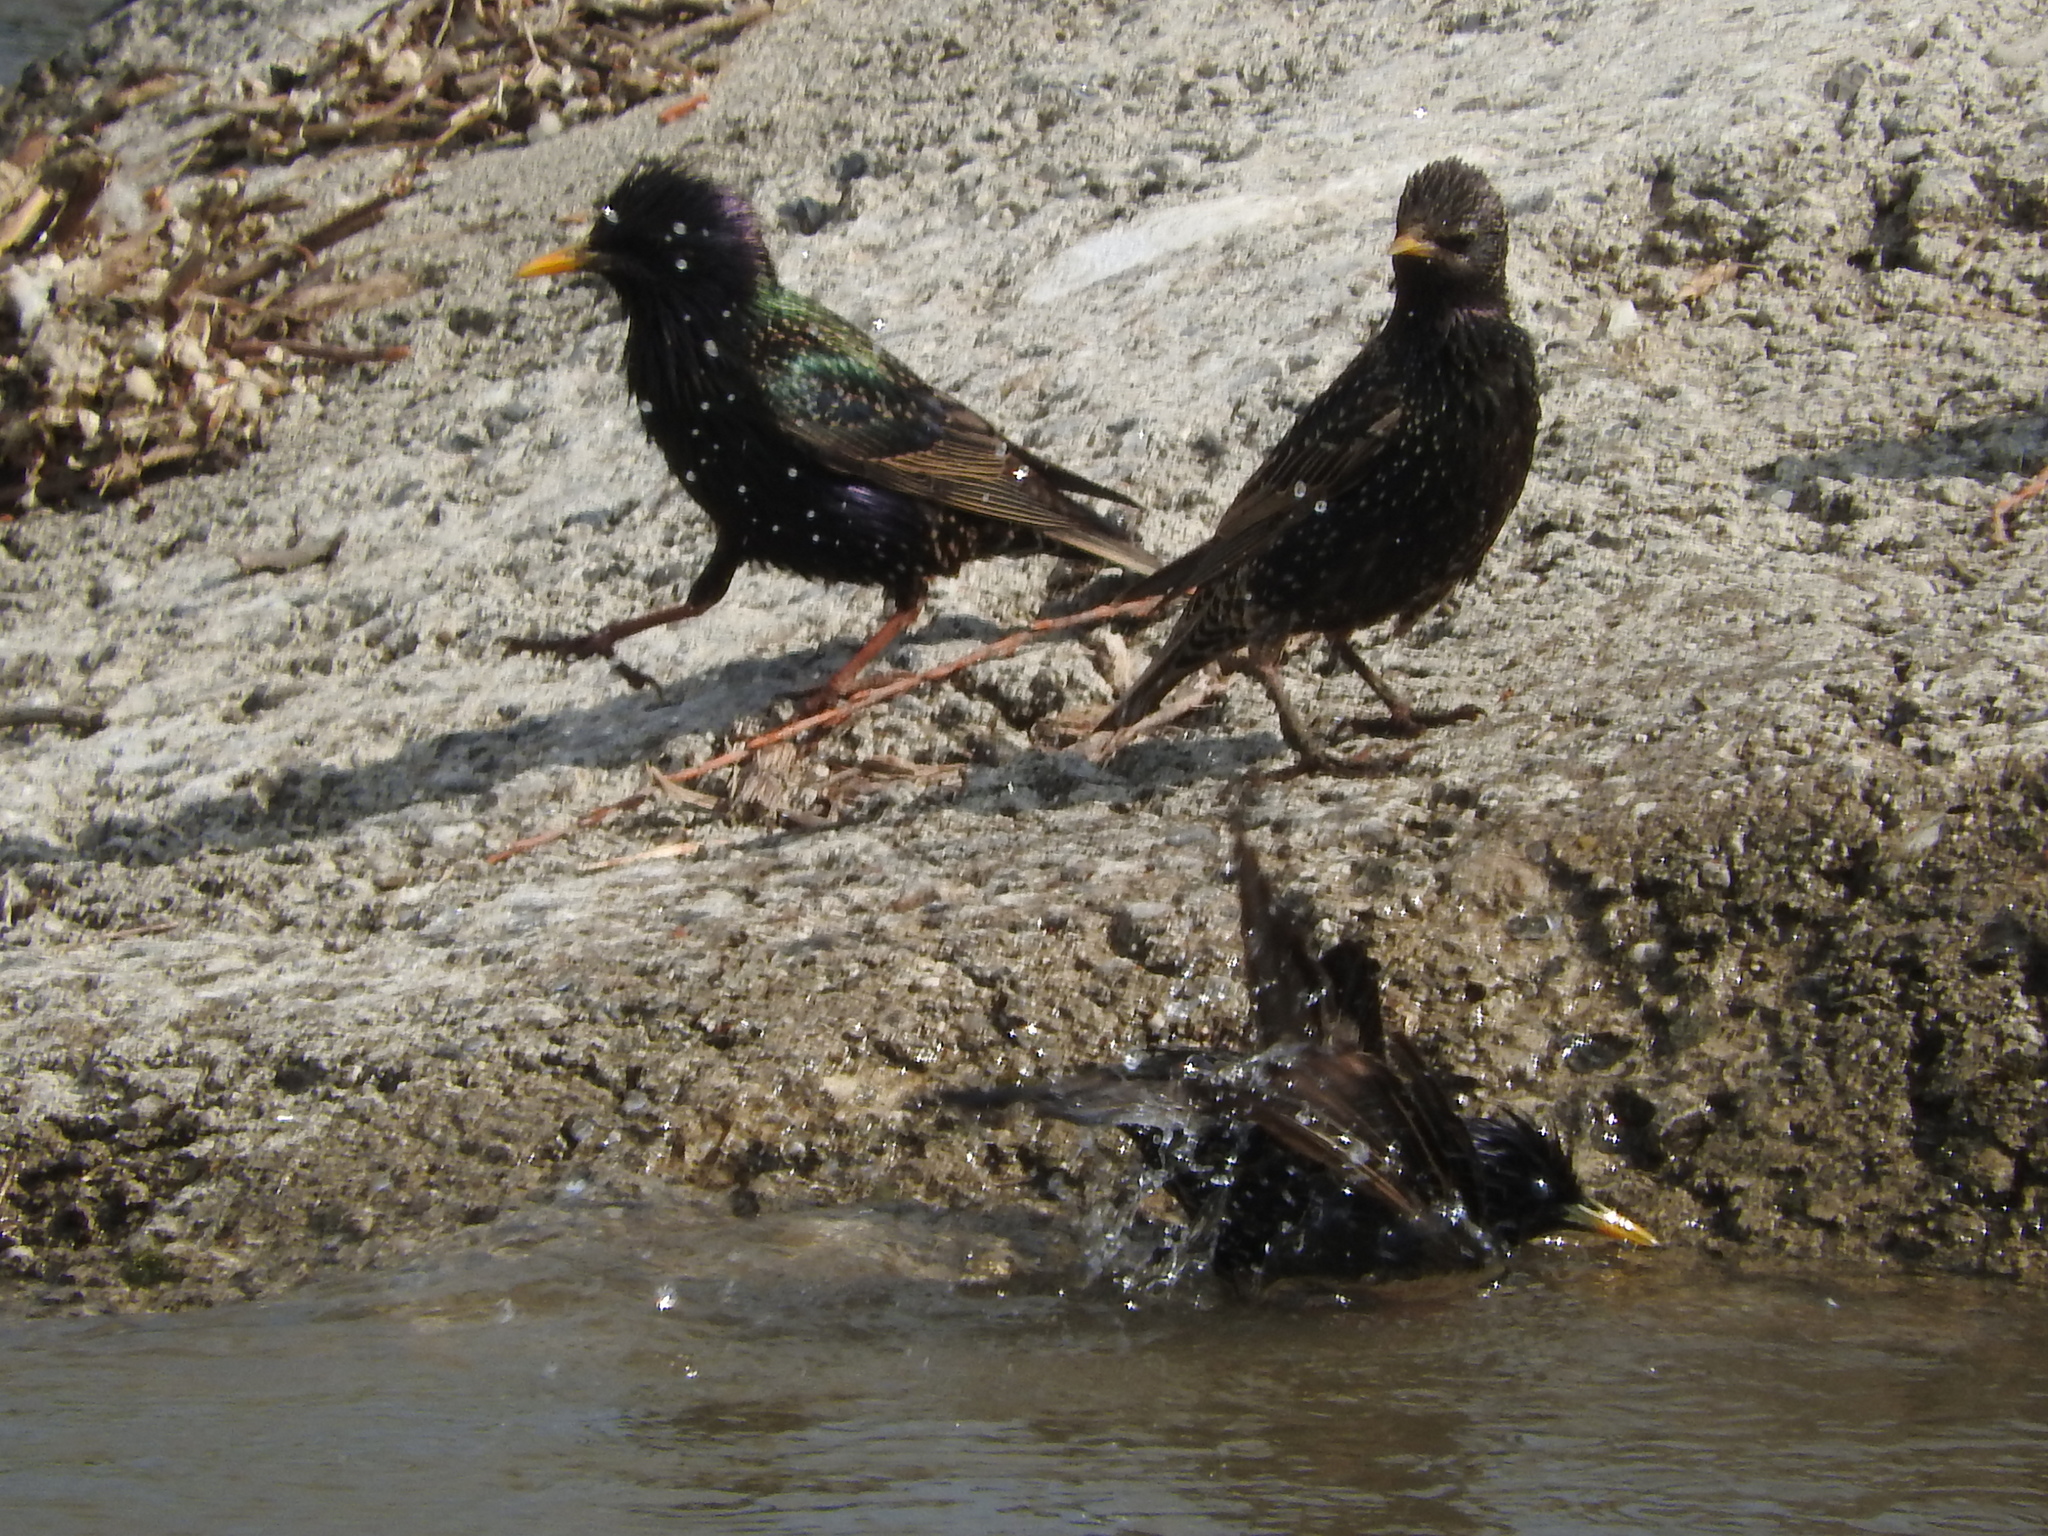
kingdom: Animalia
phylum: Chordata
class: Aves
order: Passeriformes
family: Sturnidae
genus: Sturnus
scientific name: Sturnus vulgaris
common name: Common starling
